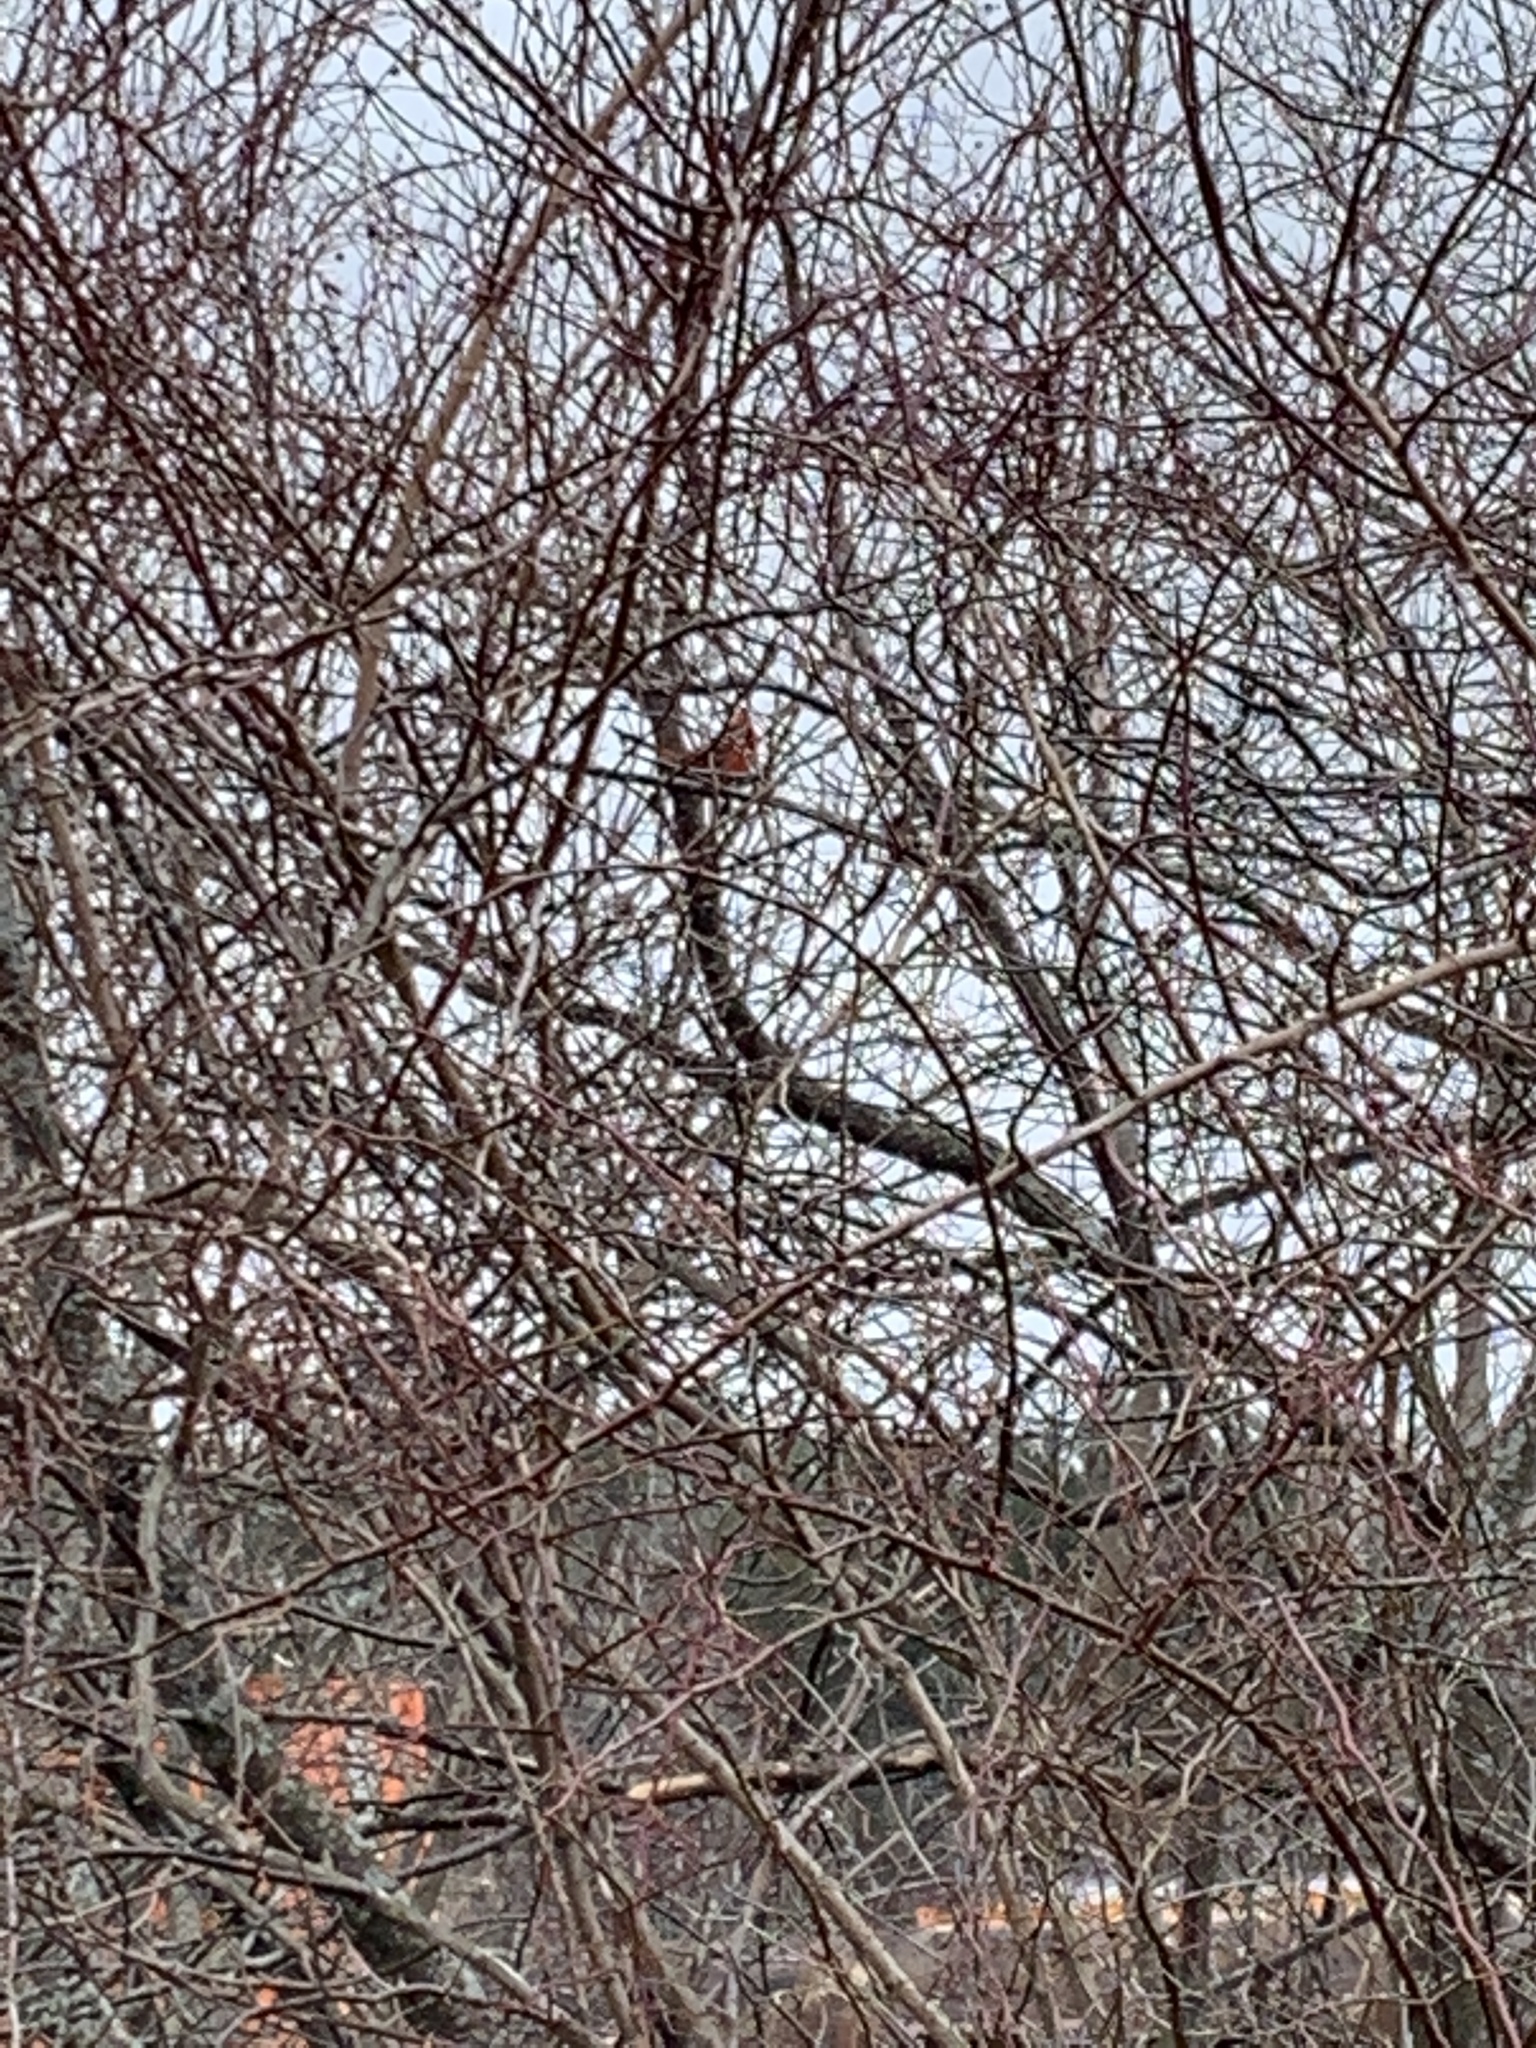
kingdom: Animalia
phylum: Chordata
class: Aves
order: Passeriformes
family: Cardinalidae
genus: Cardinalis
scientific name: Cardinalis cardinalis
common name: Northern cardinal
